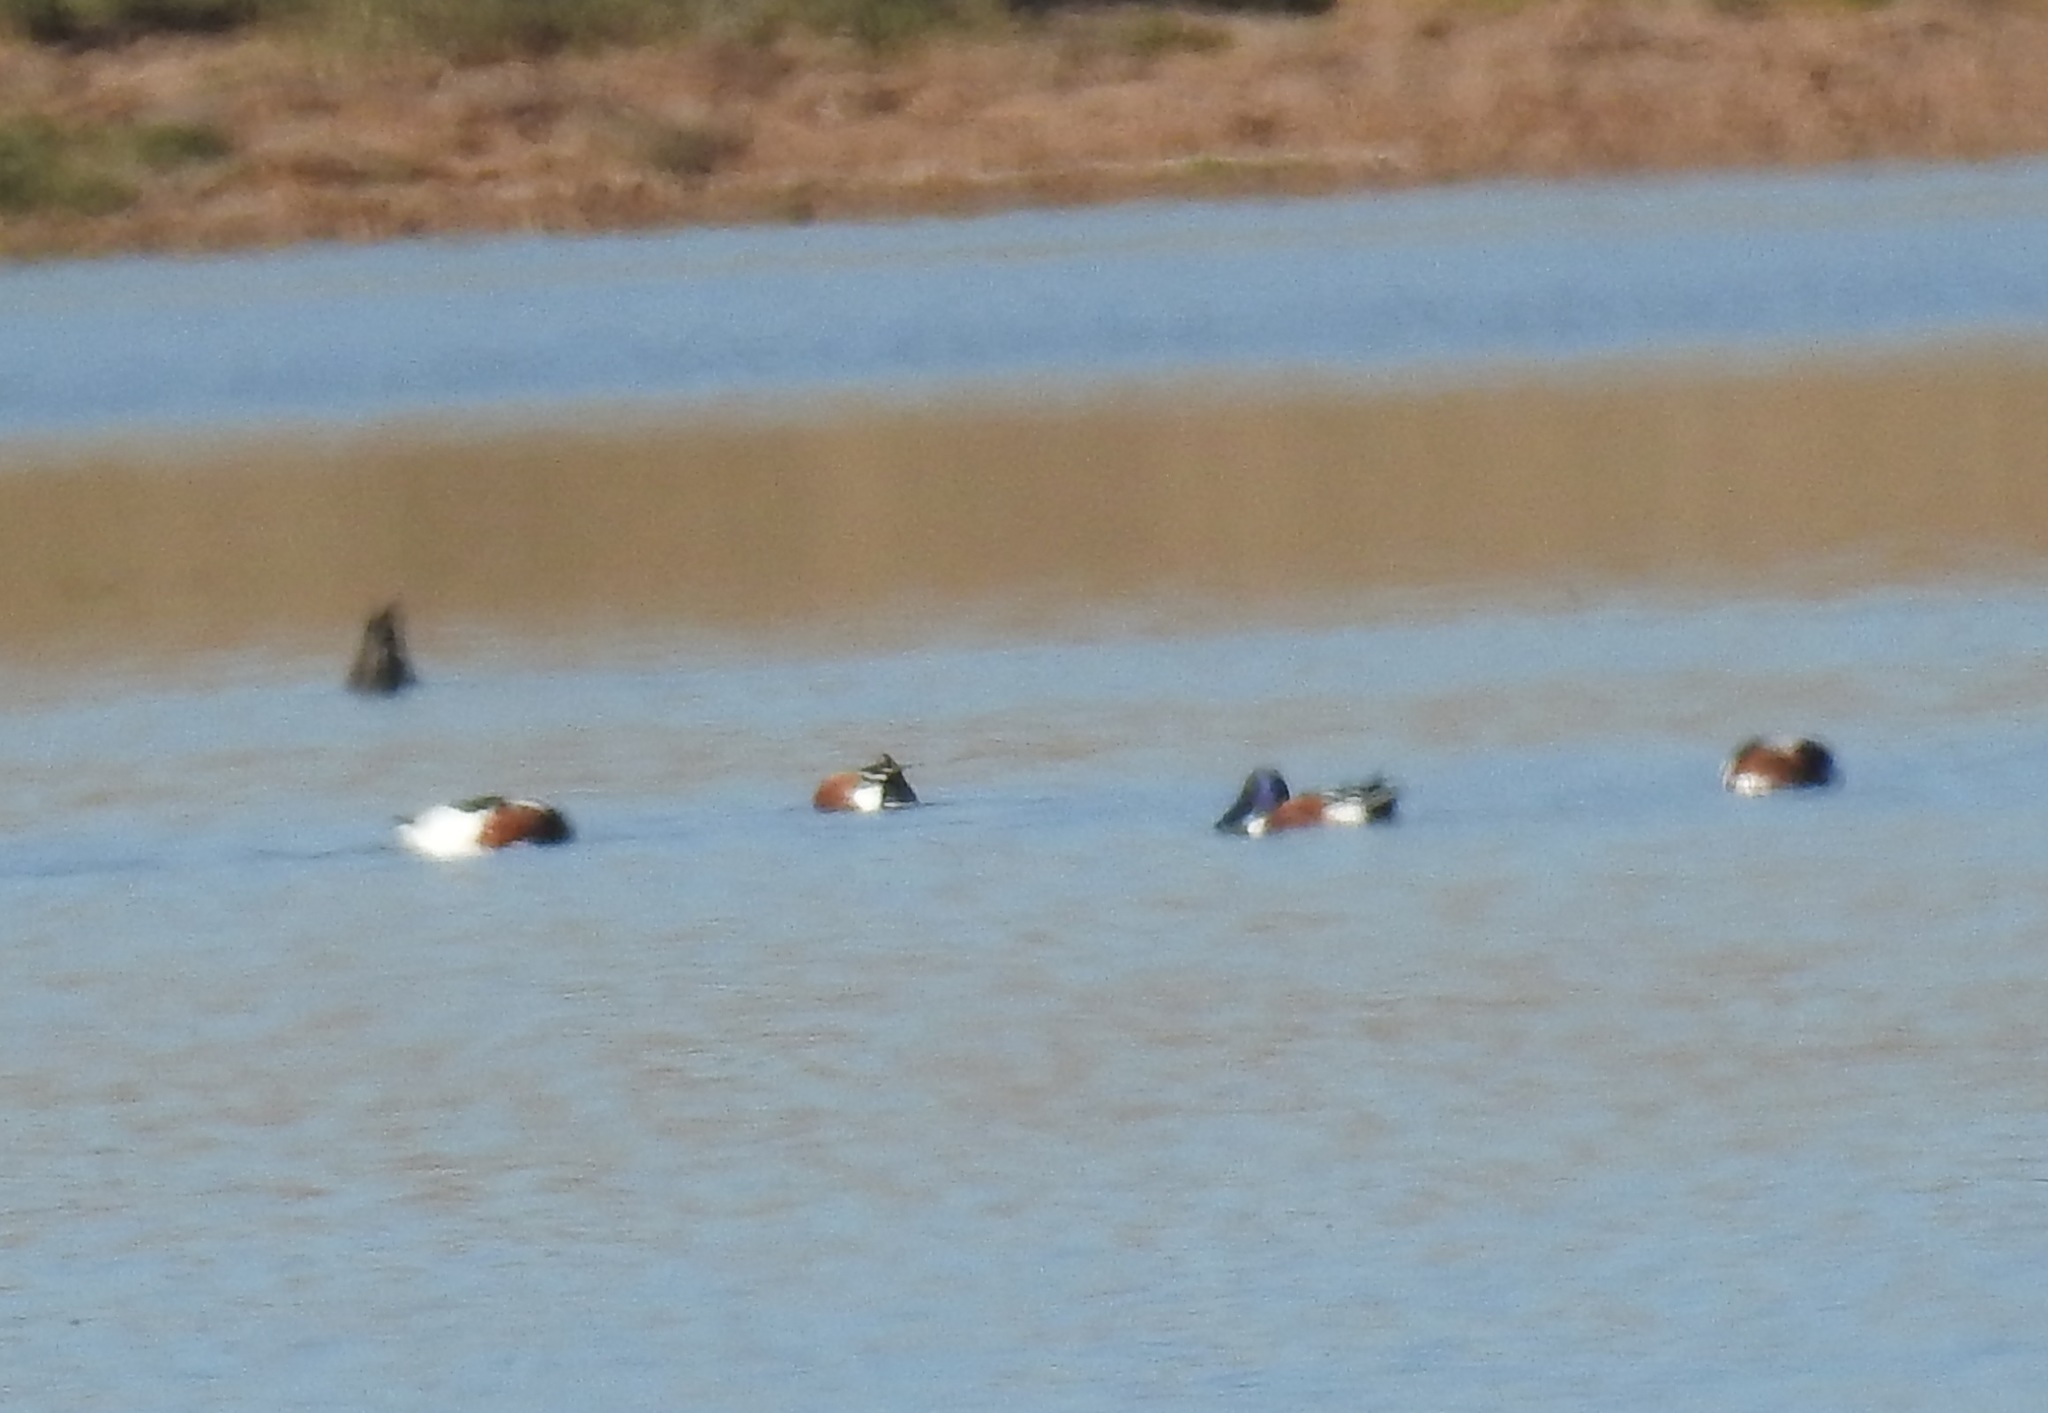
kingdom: Animalia
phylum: Chordata
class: Aves
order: Anseriformes
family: Anatidae
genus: Spatula
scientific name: Spatula clypeata
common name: Northern shoveler
